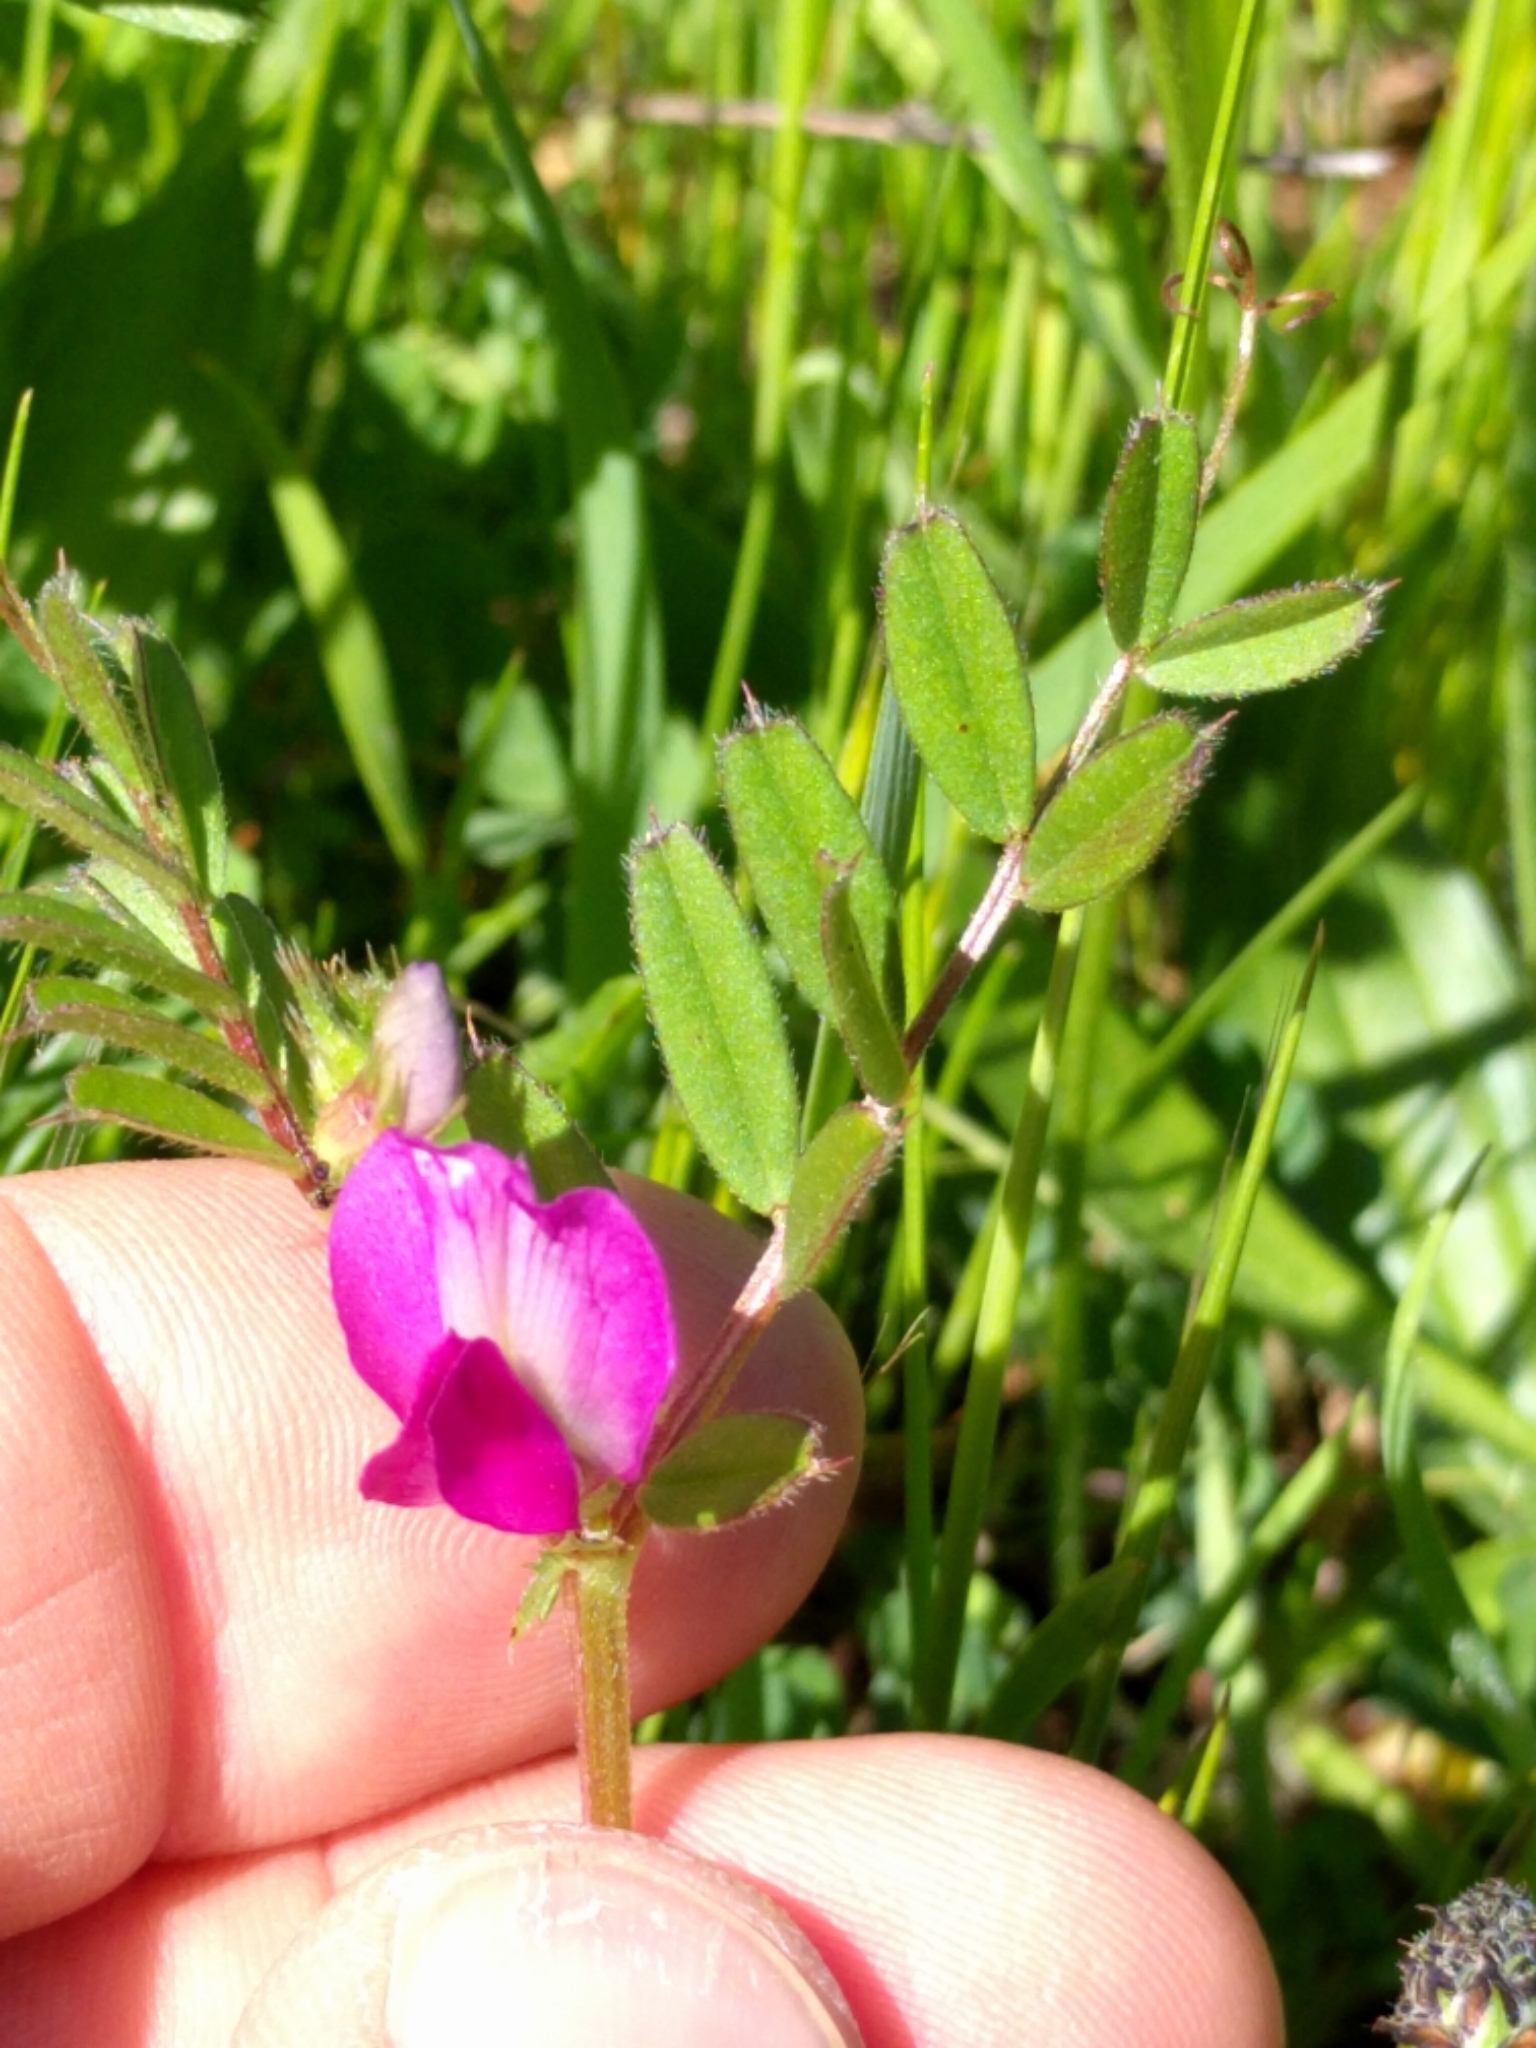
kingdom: Plantae
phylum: Tracheophyta
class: Magnoliopsida
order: Fabales
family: Fabaceae
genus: Vicia
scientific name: Vicia sativa
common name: Garden vetch
